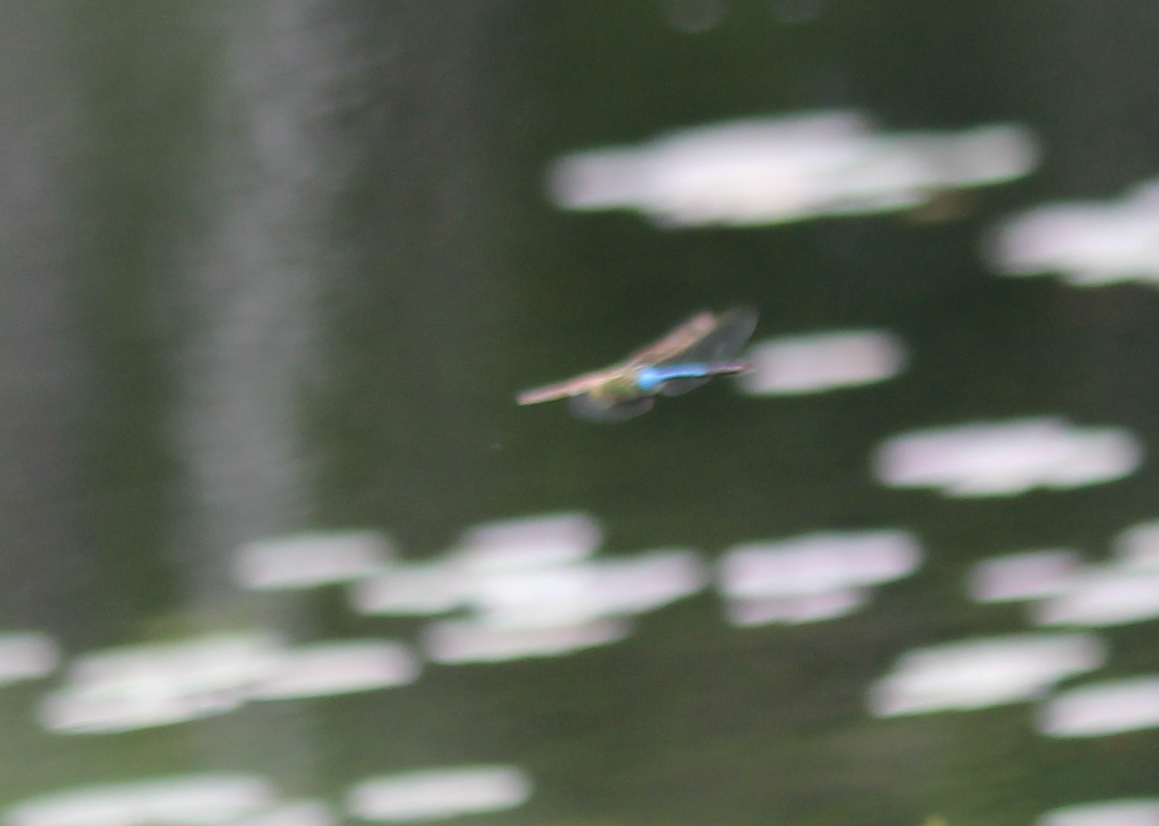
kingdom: Animalia
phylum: Arthropoda
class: Insecta
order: Odonata
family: Aeshnidae
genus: Anax
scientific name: Anax junius
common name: Common green darner
